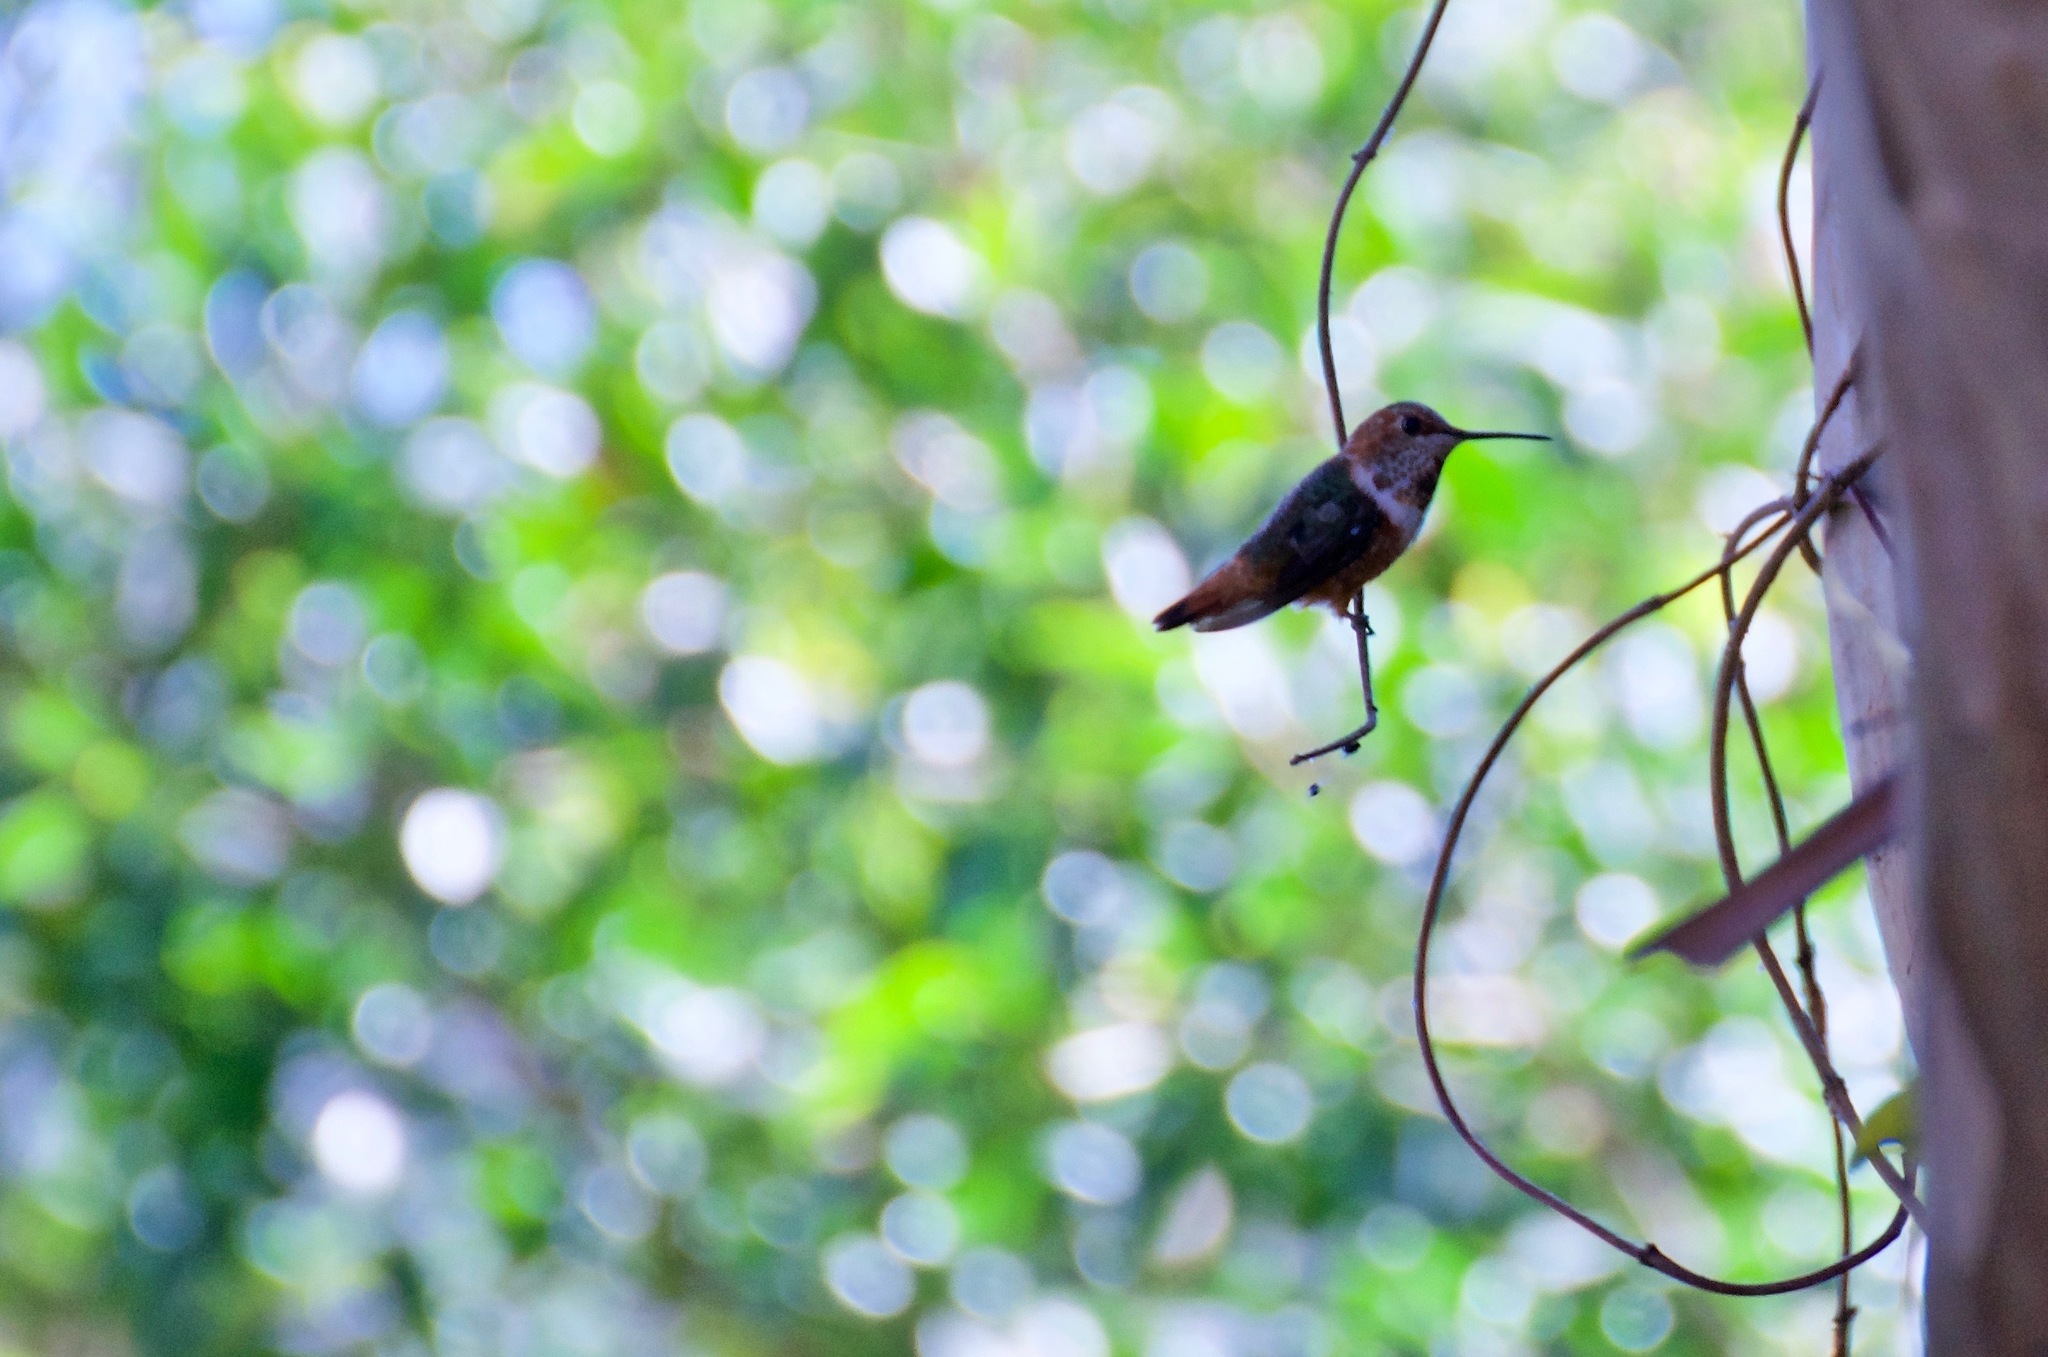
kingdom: Animalia
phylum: Chordata
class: Aves
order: Apodiformes
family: Trochilidae
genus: Selasphorus
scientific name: Selasphorus
